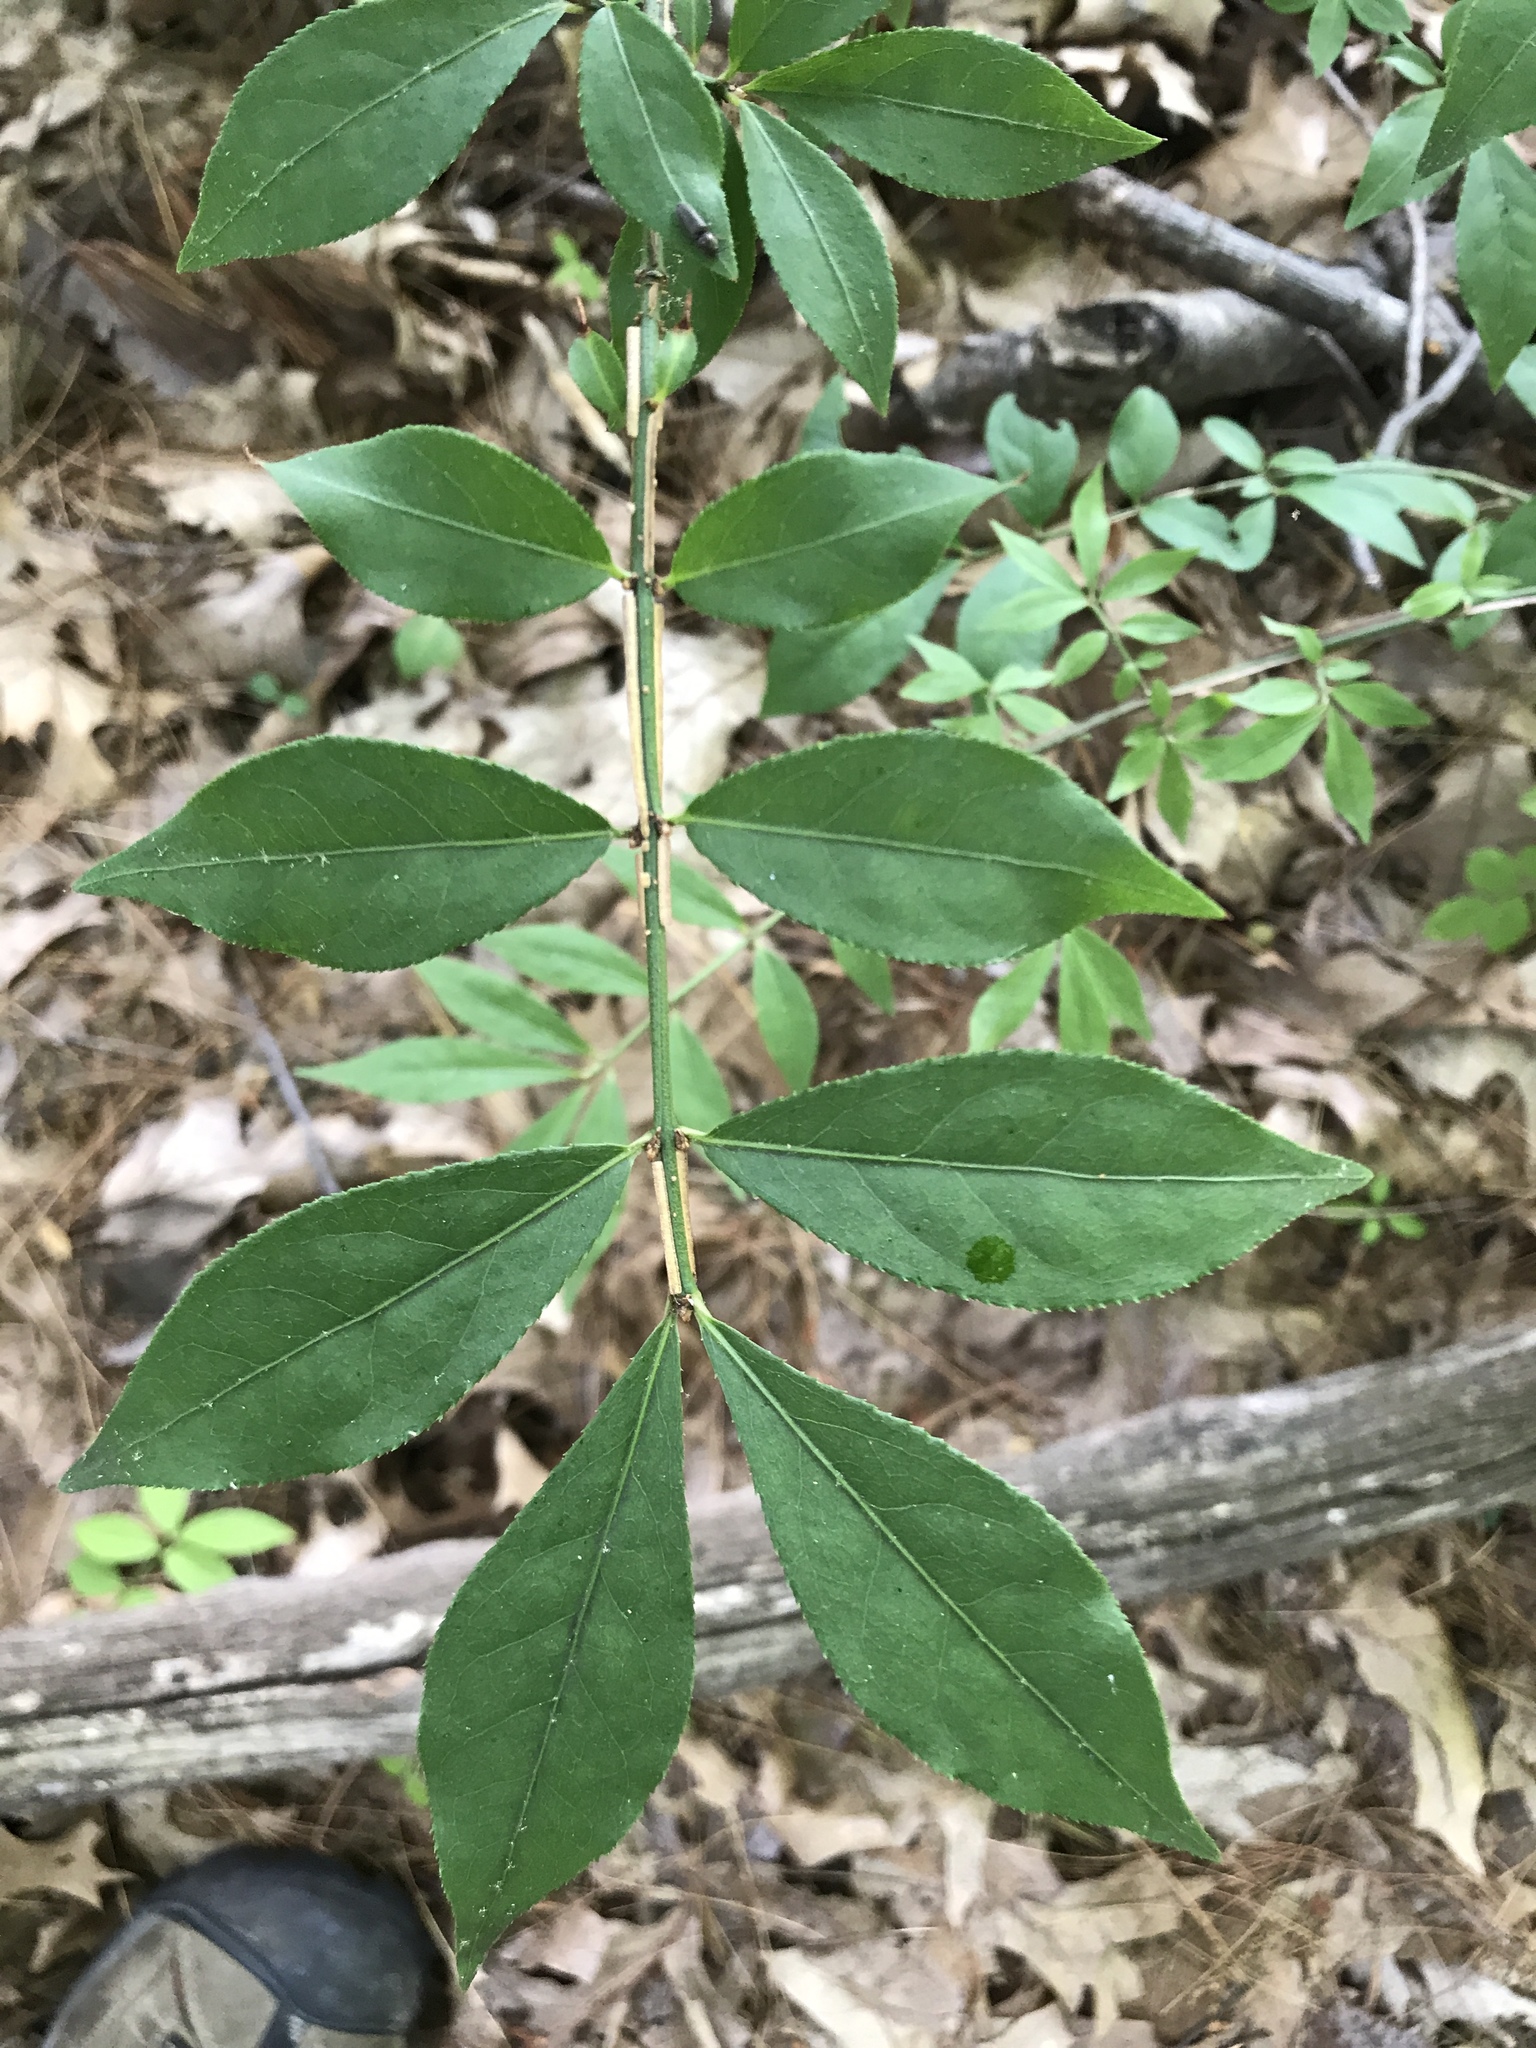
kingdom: Plantae
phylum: Tracheophyta
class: Magnoliopsida
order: Celastrales
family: Celastraceae
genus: Euonymus
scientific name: Euonymus alatus
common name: Winged euonymus
